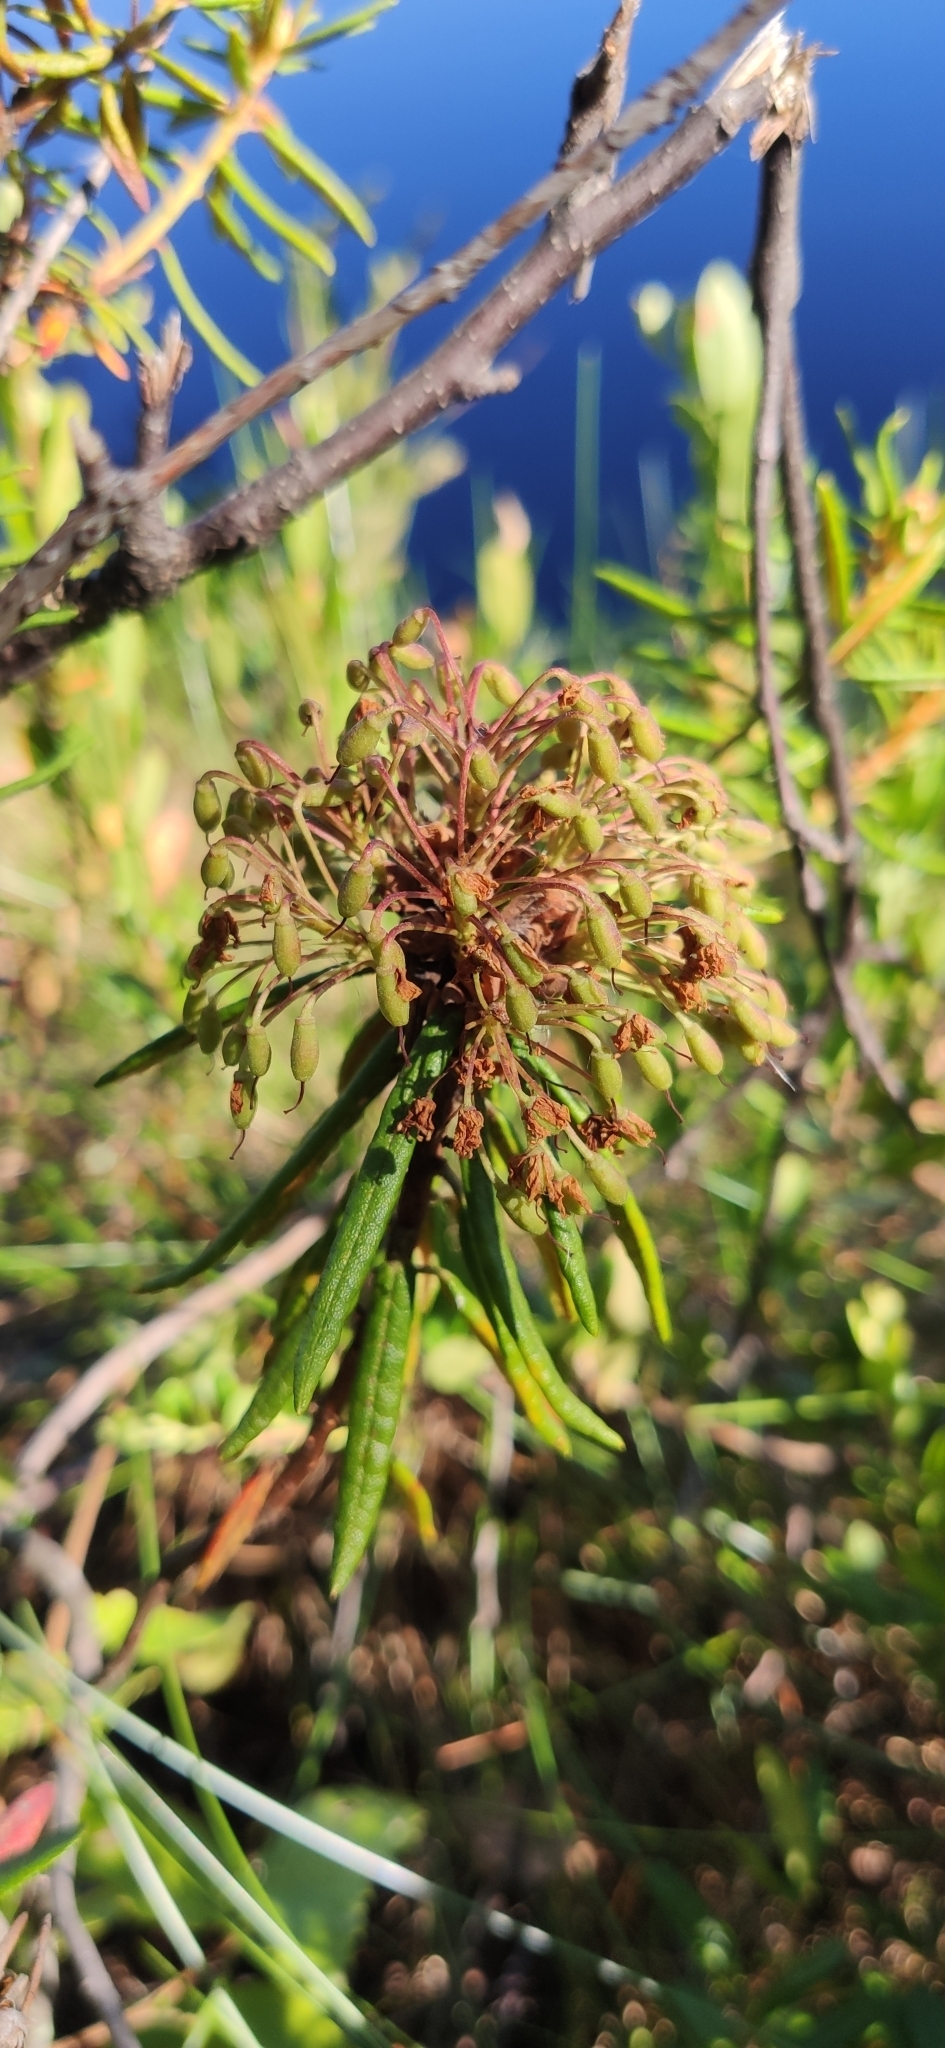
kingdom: Plantae
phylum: Tracheophyta
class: Magnoliopsida
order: Ericales
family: Ericaceae
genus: Rhododendron
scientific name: Rhododendron tomentosum
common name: Marsh labrador tea
